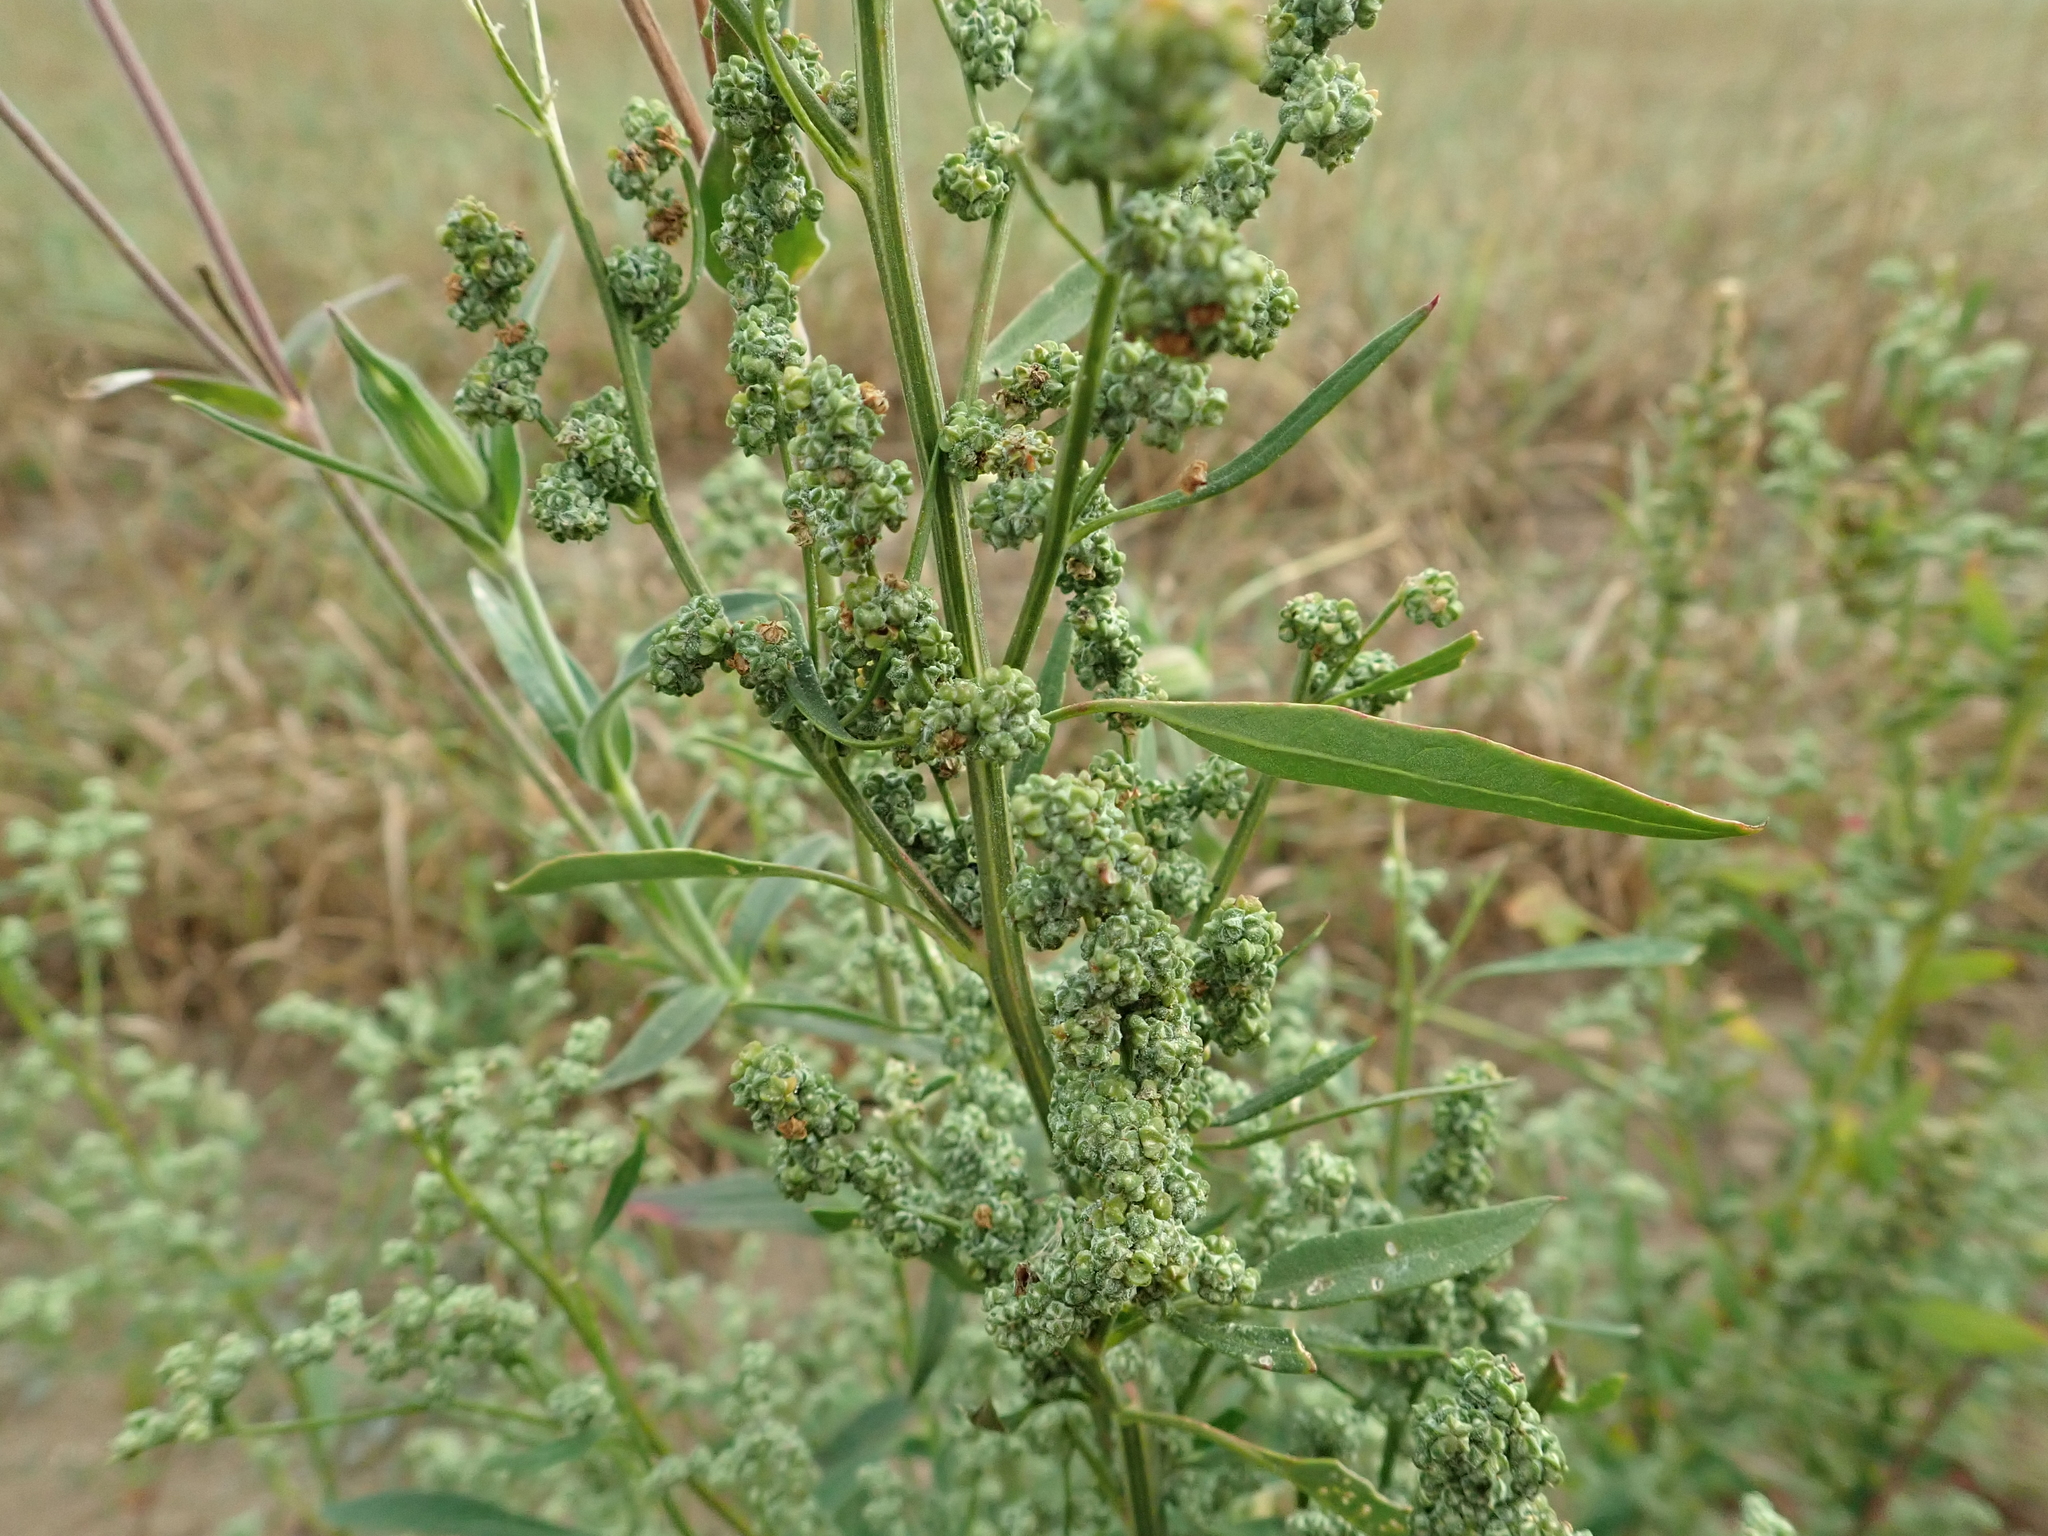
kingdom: Plantae
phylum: Tracheophyta
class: Magnoliopsida
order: Caryophyllales
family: Amaranthaceae
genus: Chenopodium
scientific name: Chenopodium album
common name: Fat-hen
